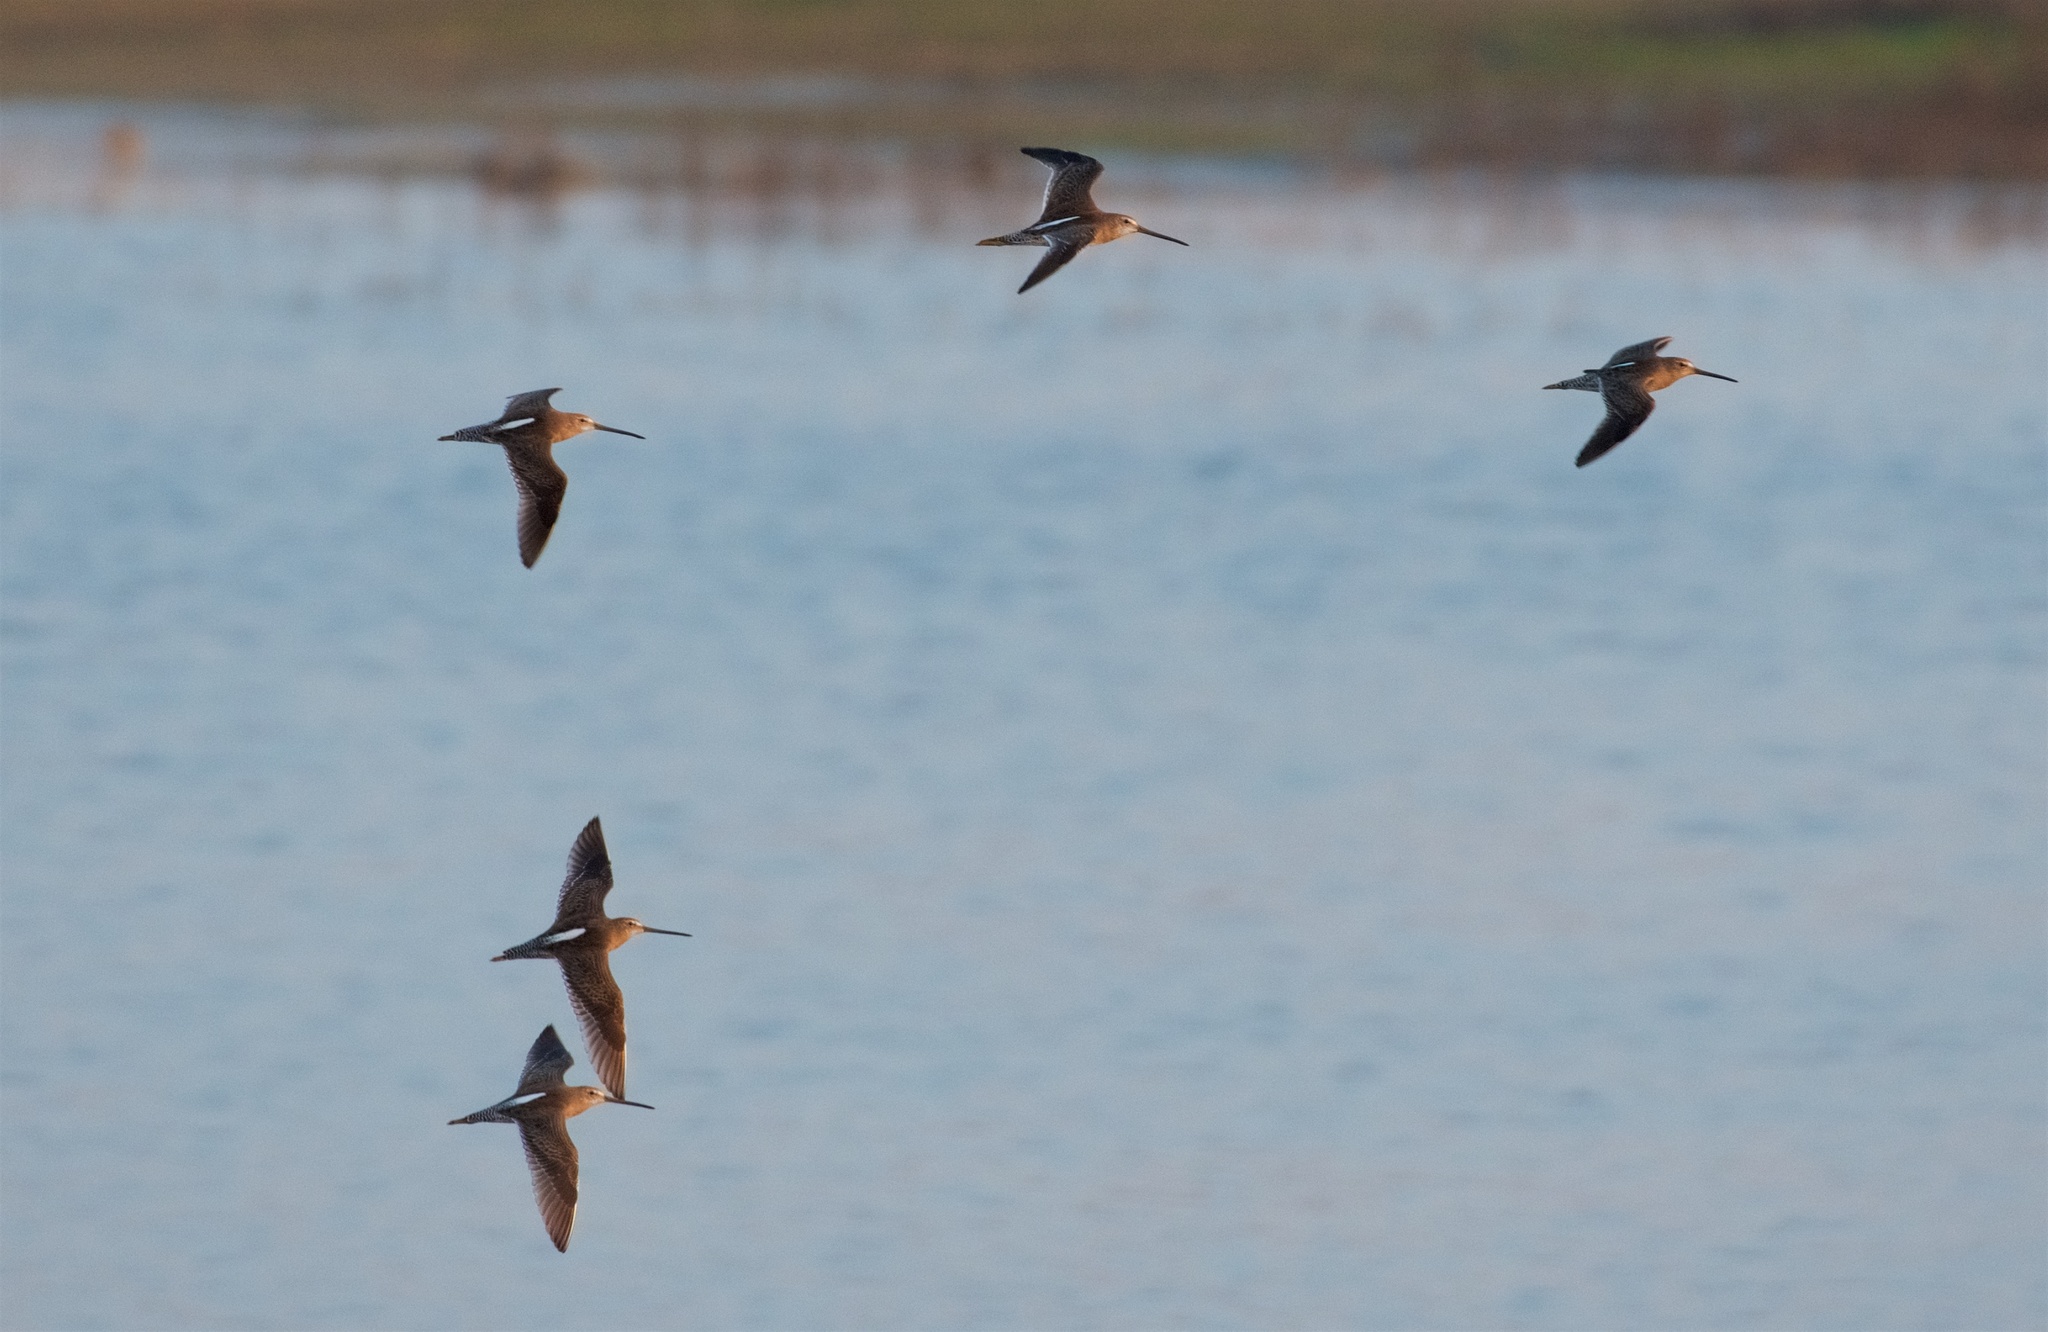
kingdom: Animalia
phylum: Chordata
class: Aves
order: Charadriiformes
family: Scolopacidae
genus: Limnodromus
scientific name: Limnodromus scolopaceus
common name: Long-billed dowitcher
